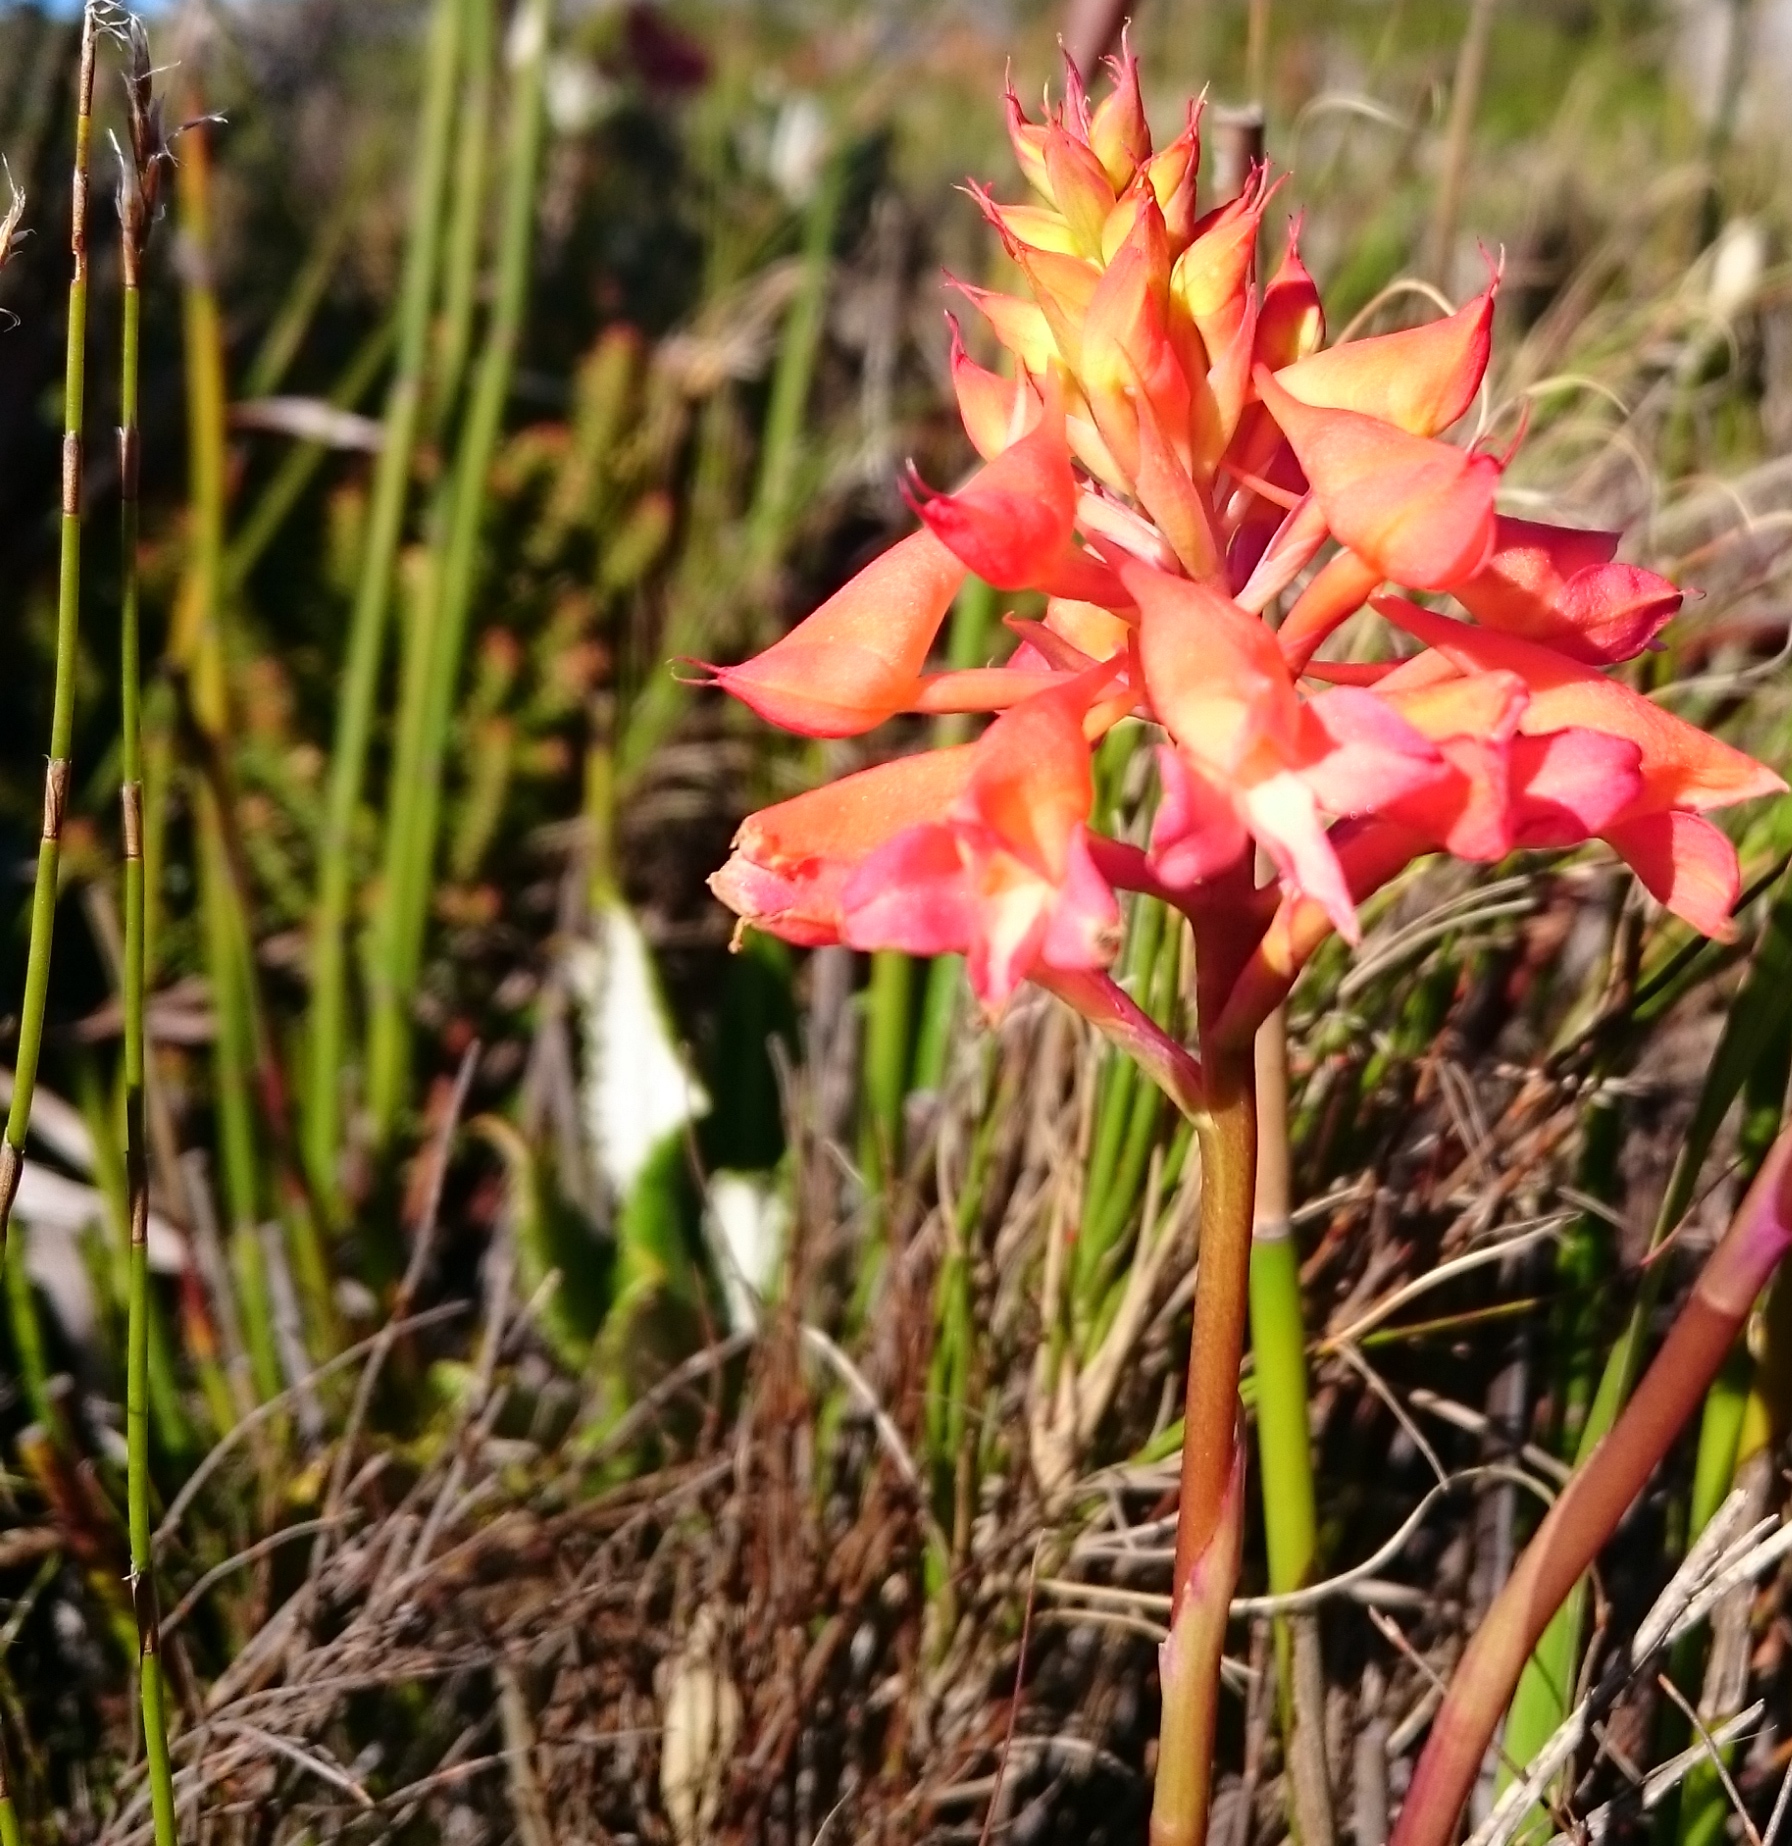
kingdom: Plantae
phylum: Tracheophyta
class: Liliopsida
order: Asparagales
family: Orchidaceae
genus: Disa
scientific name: Disa ferruginea
